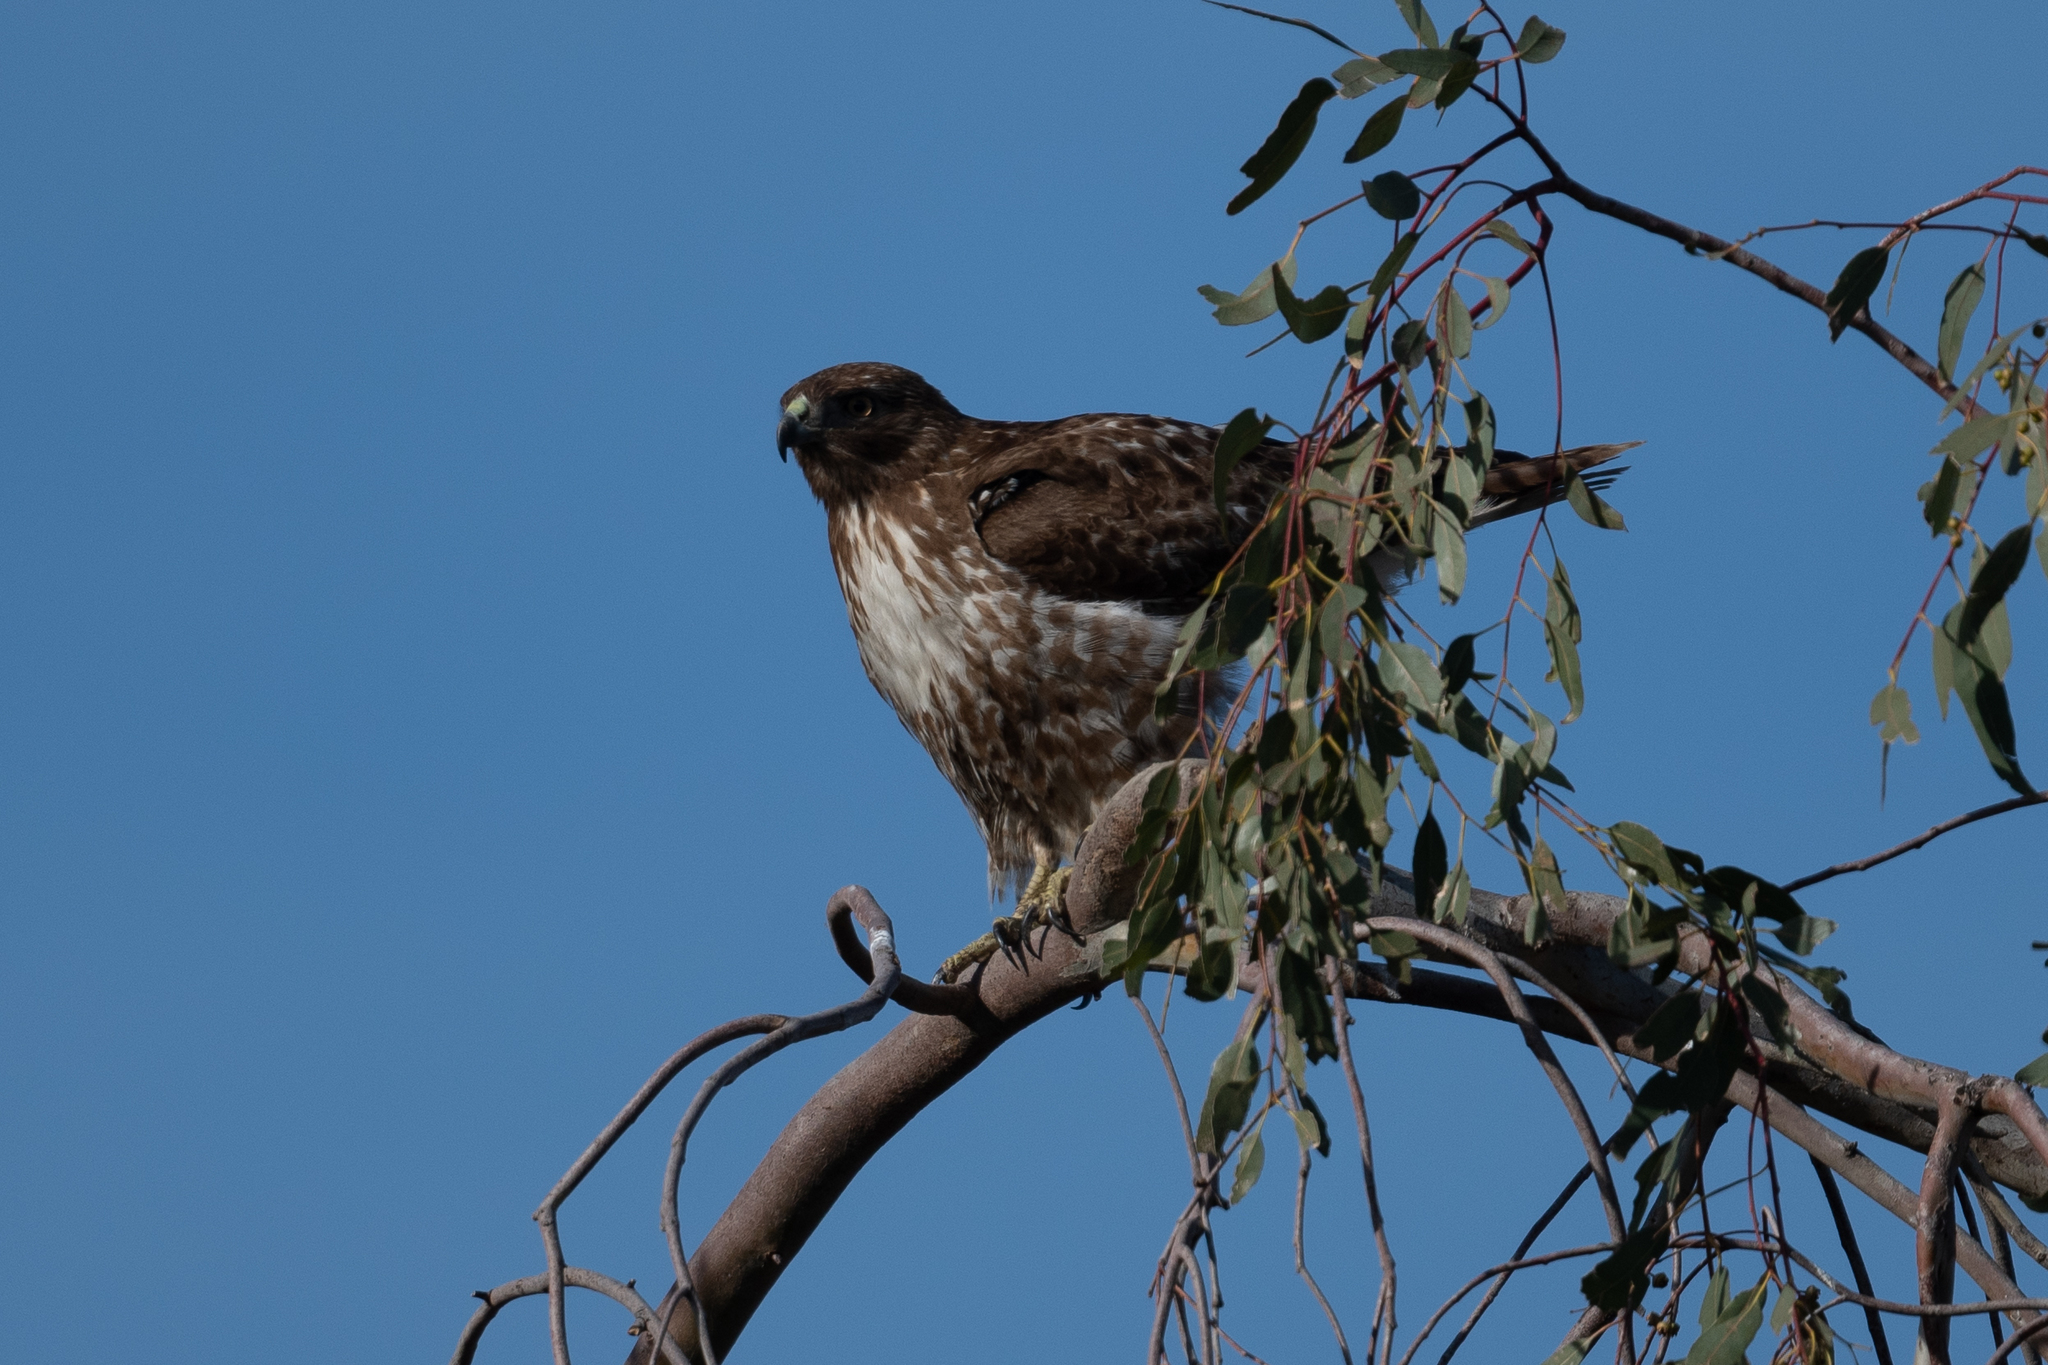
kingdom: Animalia
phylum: Chordata
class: Aves
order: Accipitriformes
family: Accipitridae
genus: Buteo
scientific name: Buteo jamaicensis
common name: Red-tailed hawk
